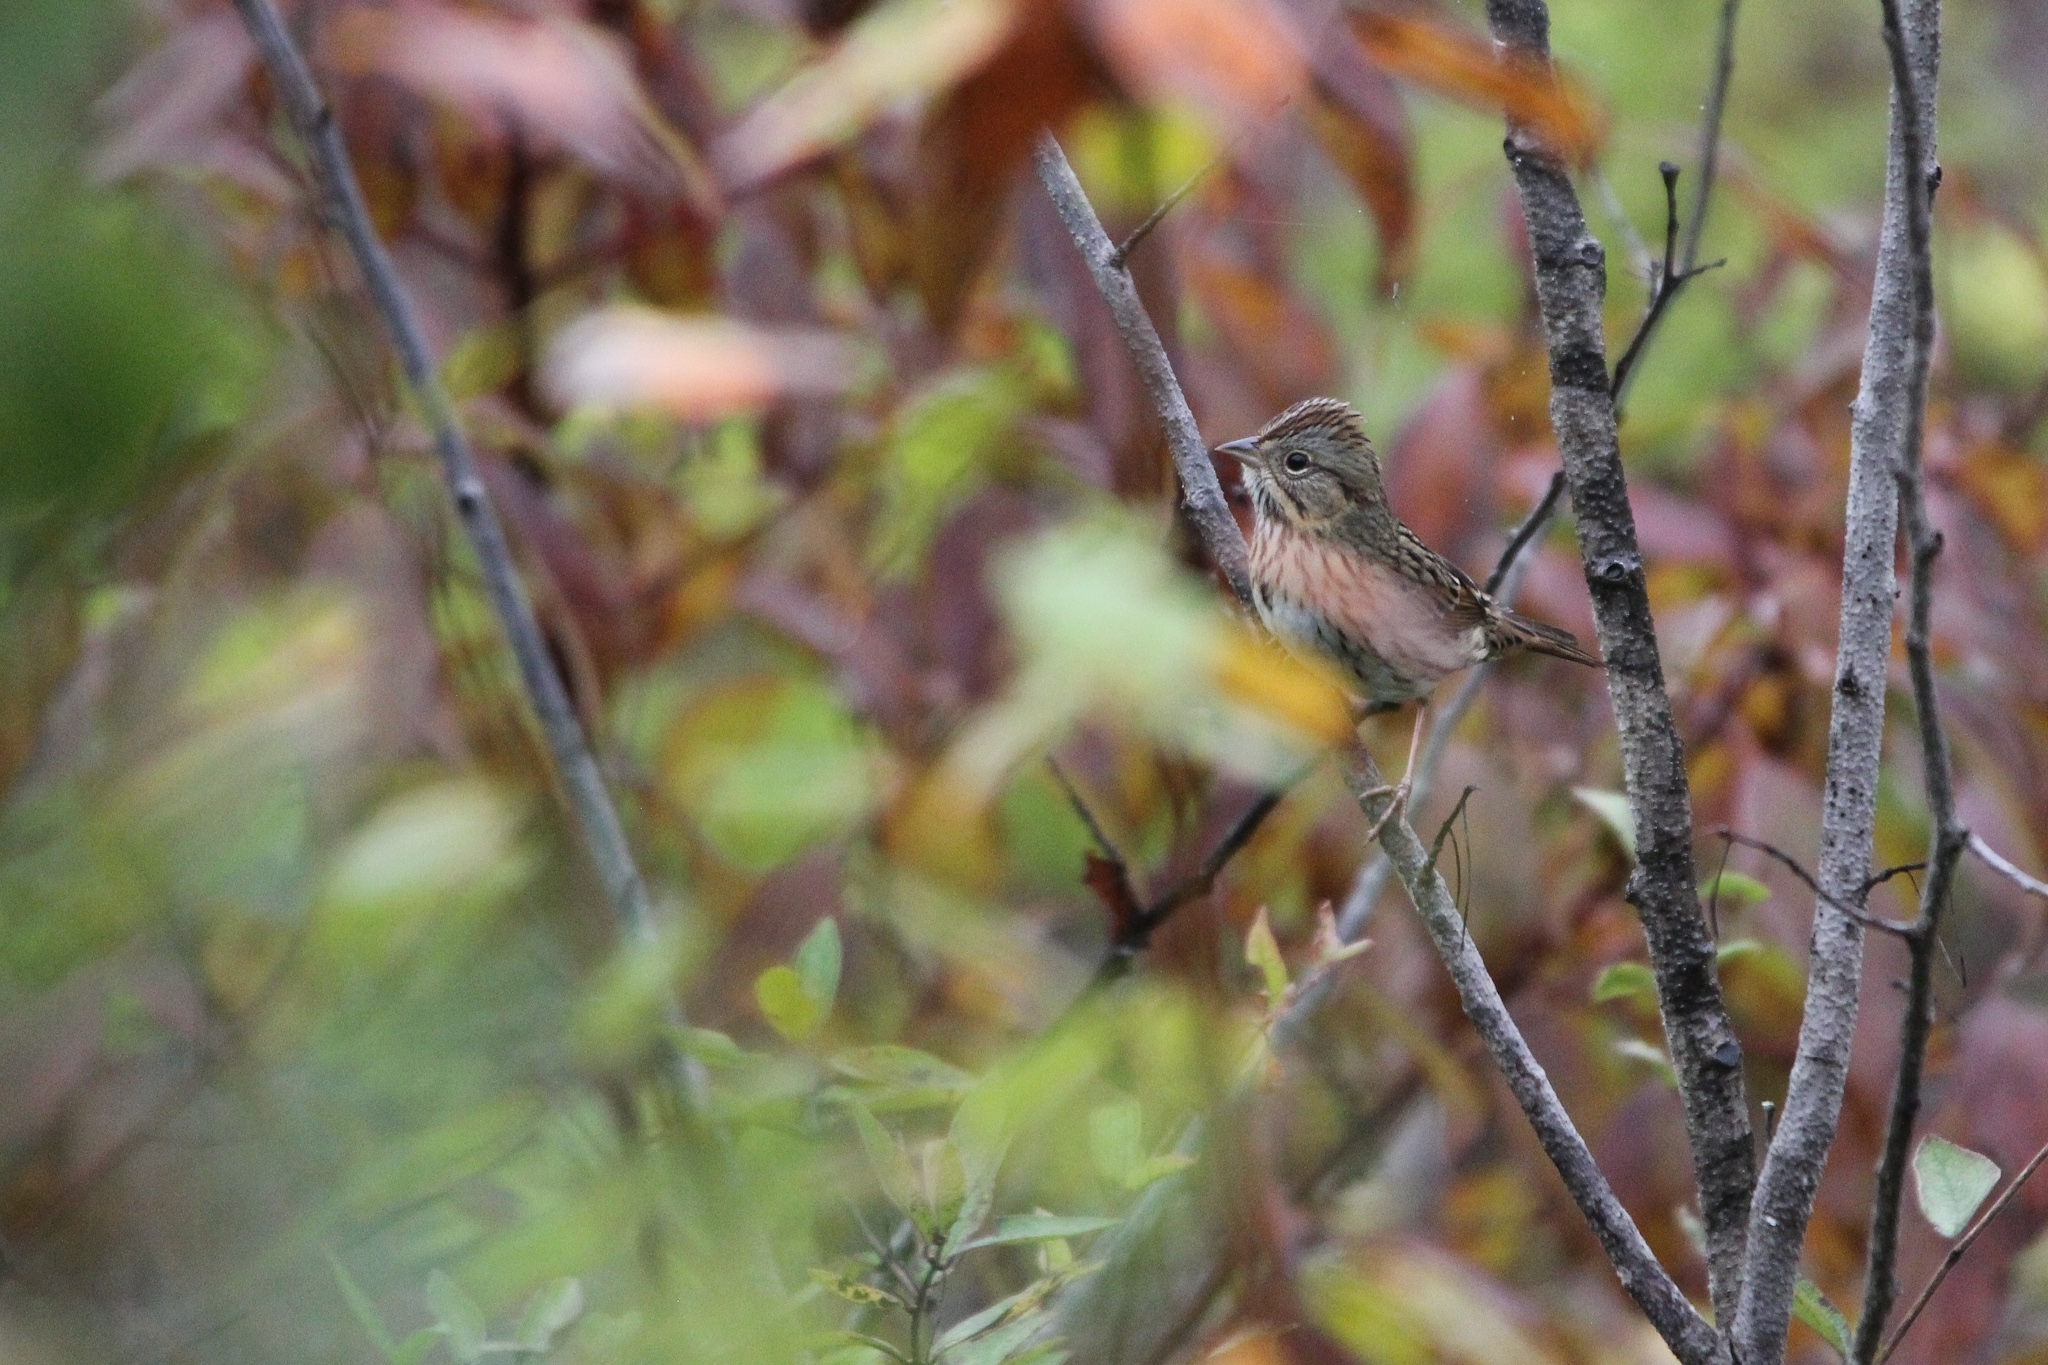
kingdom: Animalia
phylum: Chordata
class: Aves
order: Passeriformes
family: Passerellidae
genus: Melospiza
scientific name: Melospiza lincolnii
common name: Lincoln's sparrow
